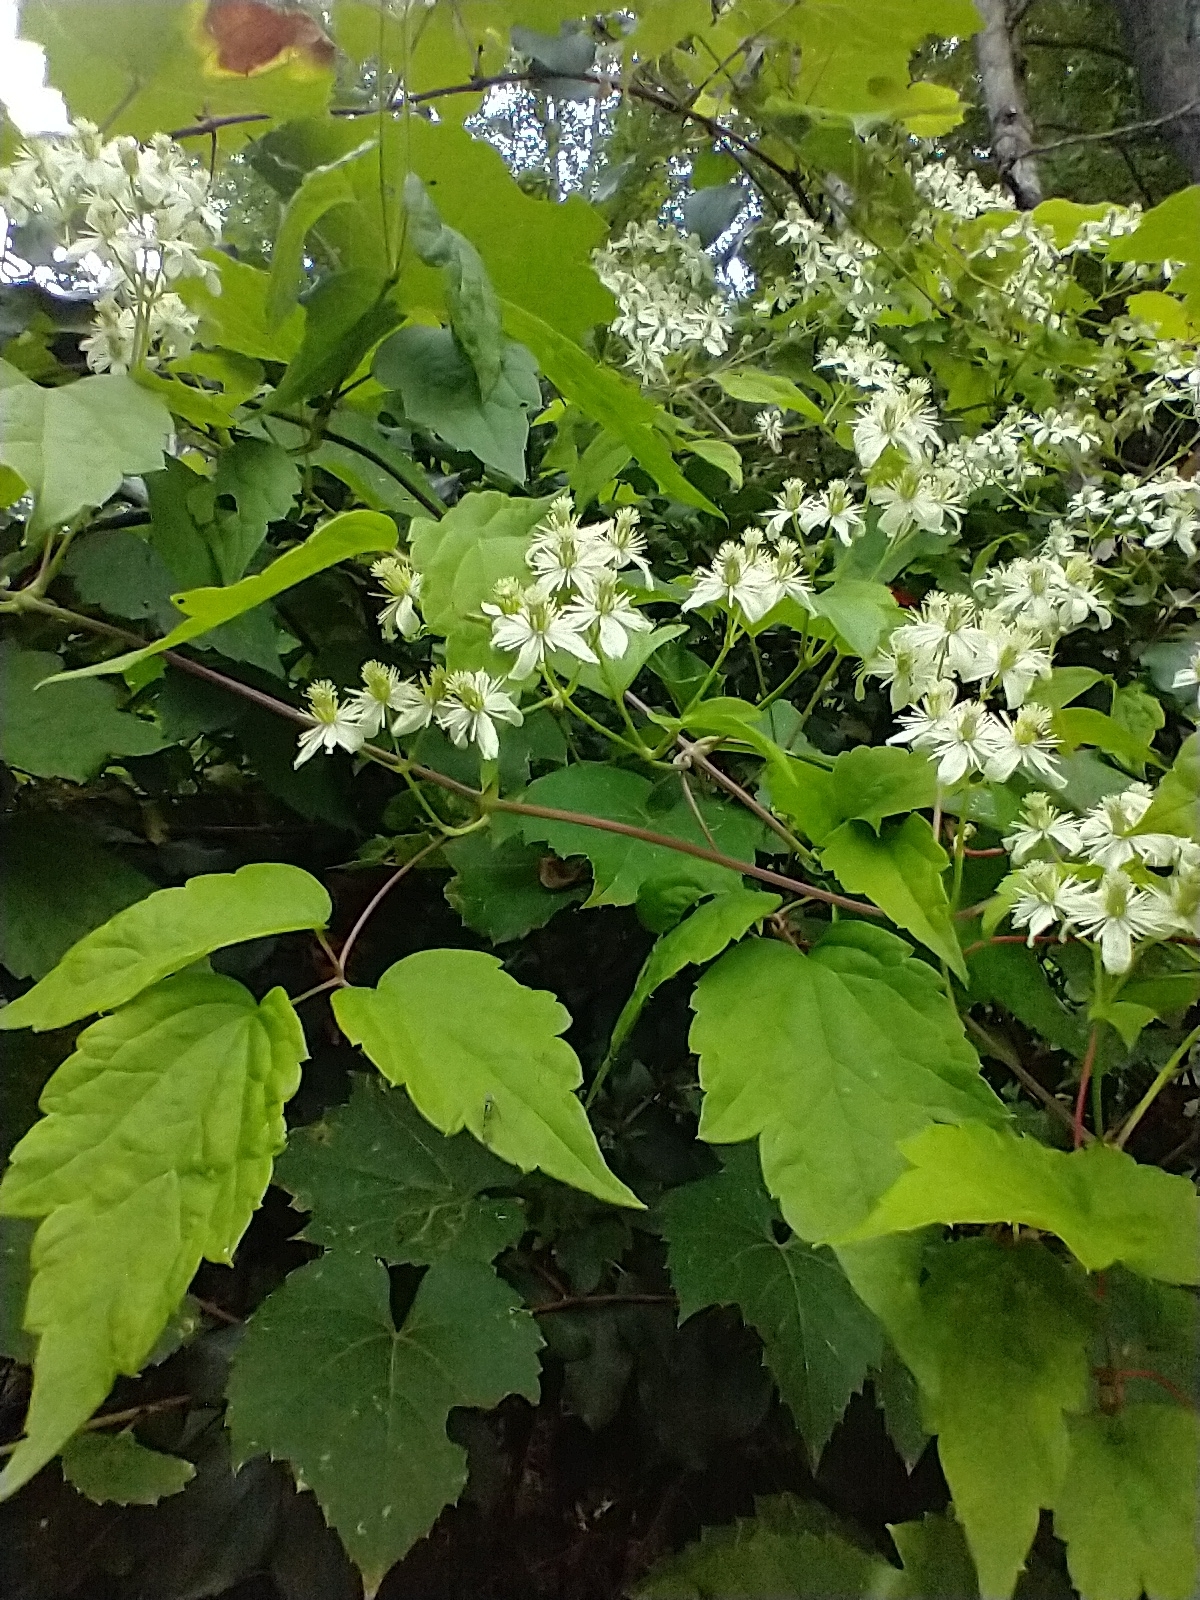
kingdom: Plantae
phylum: Tracheophyta
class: Magnoliopsida
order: Ranunculales
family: Ranunculaceae
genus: Clematis
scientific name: Clematis virginiana
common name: Virgin's-bower
